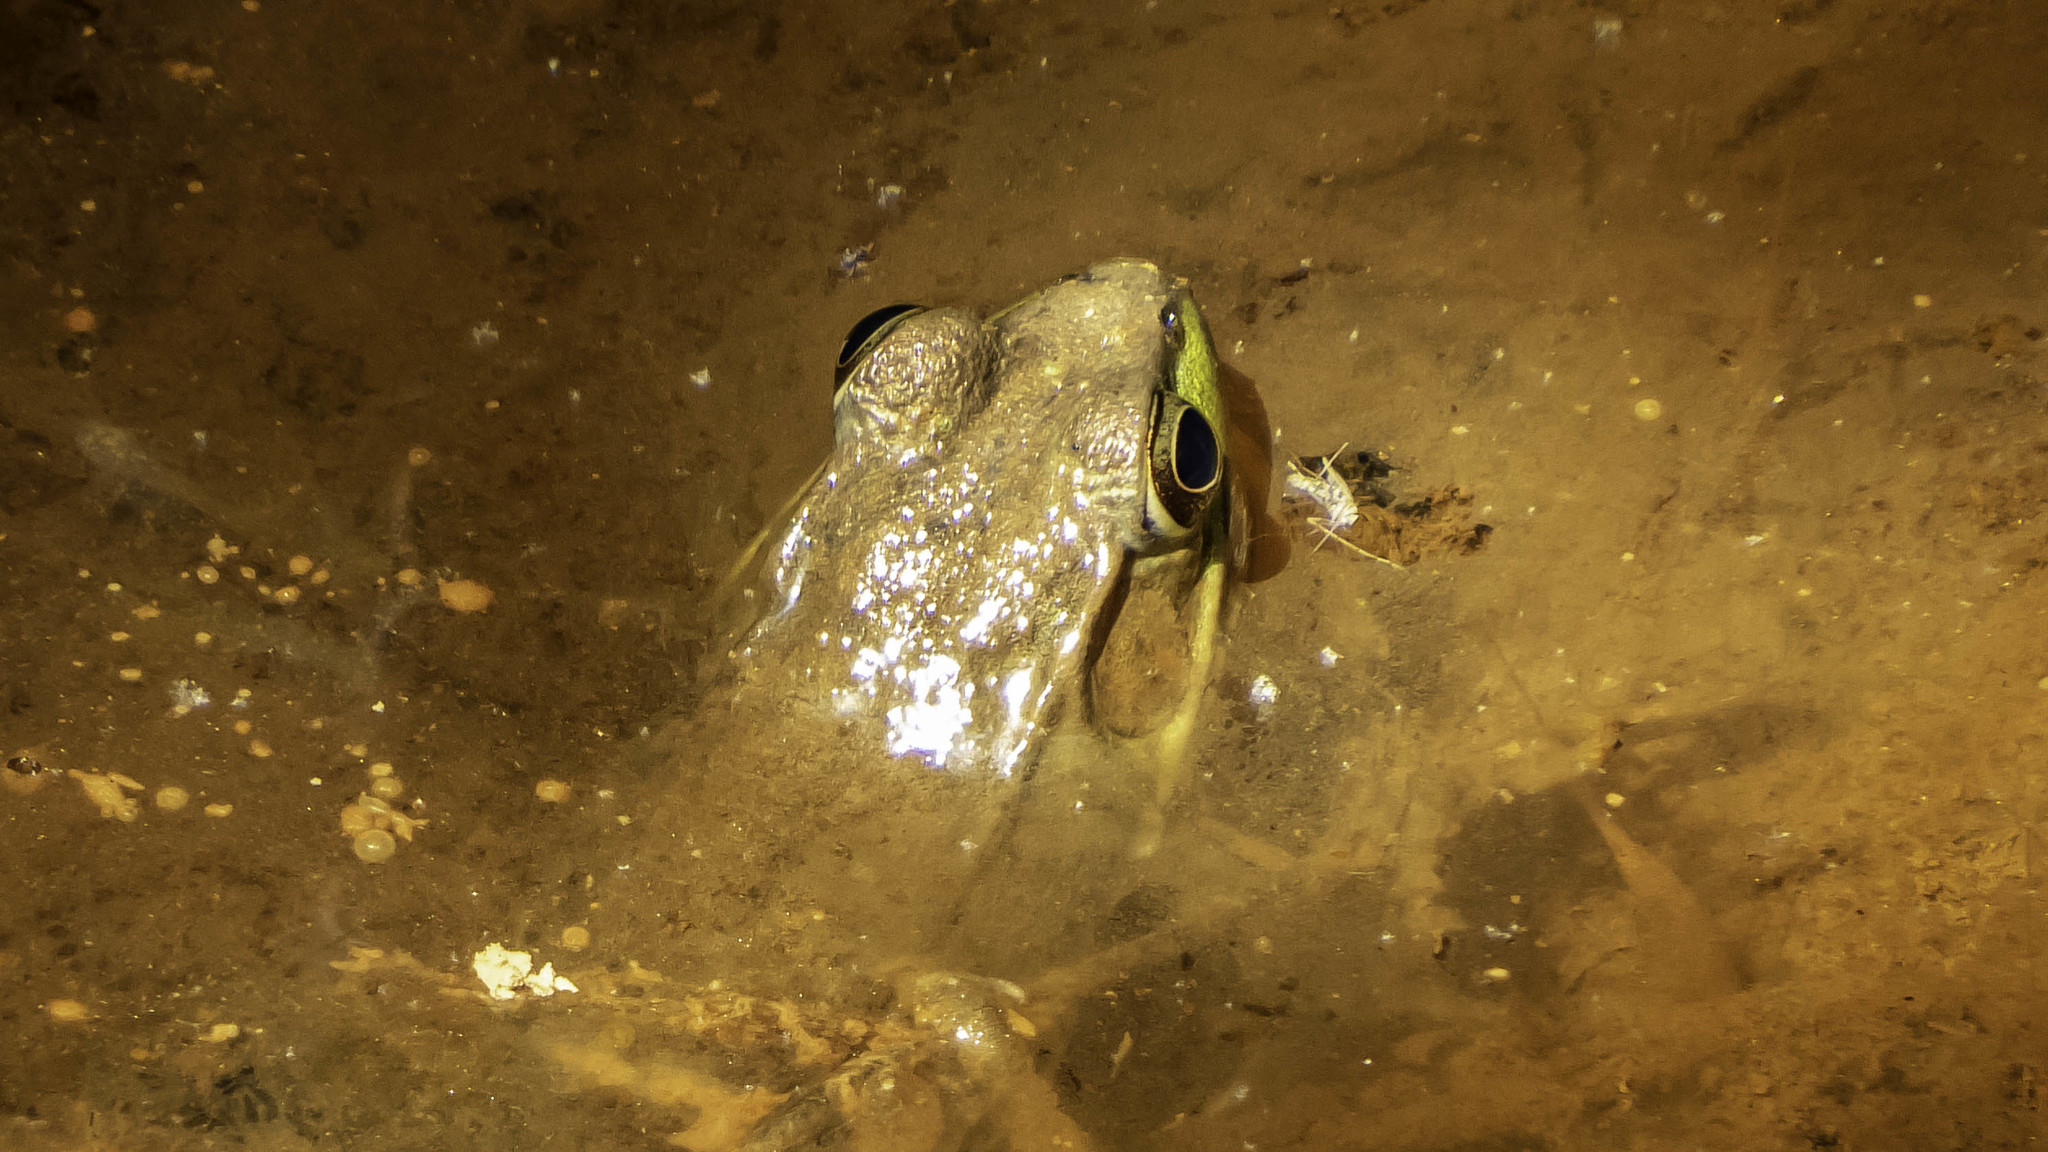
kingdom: Animalia
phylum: Chordata
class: Amphibia
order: Anura
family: Ranidae
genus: Lithobates
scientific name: Lithobates clamitans
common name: Green frog
